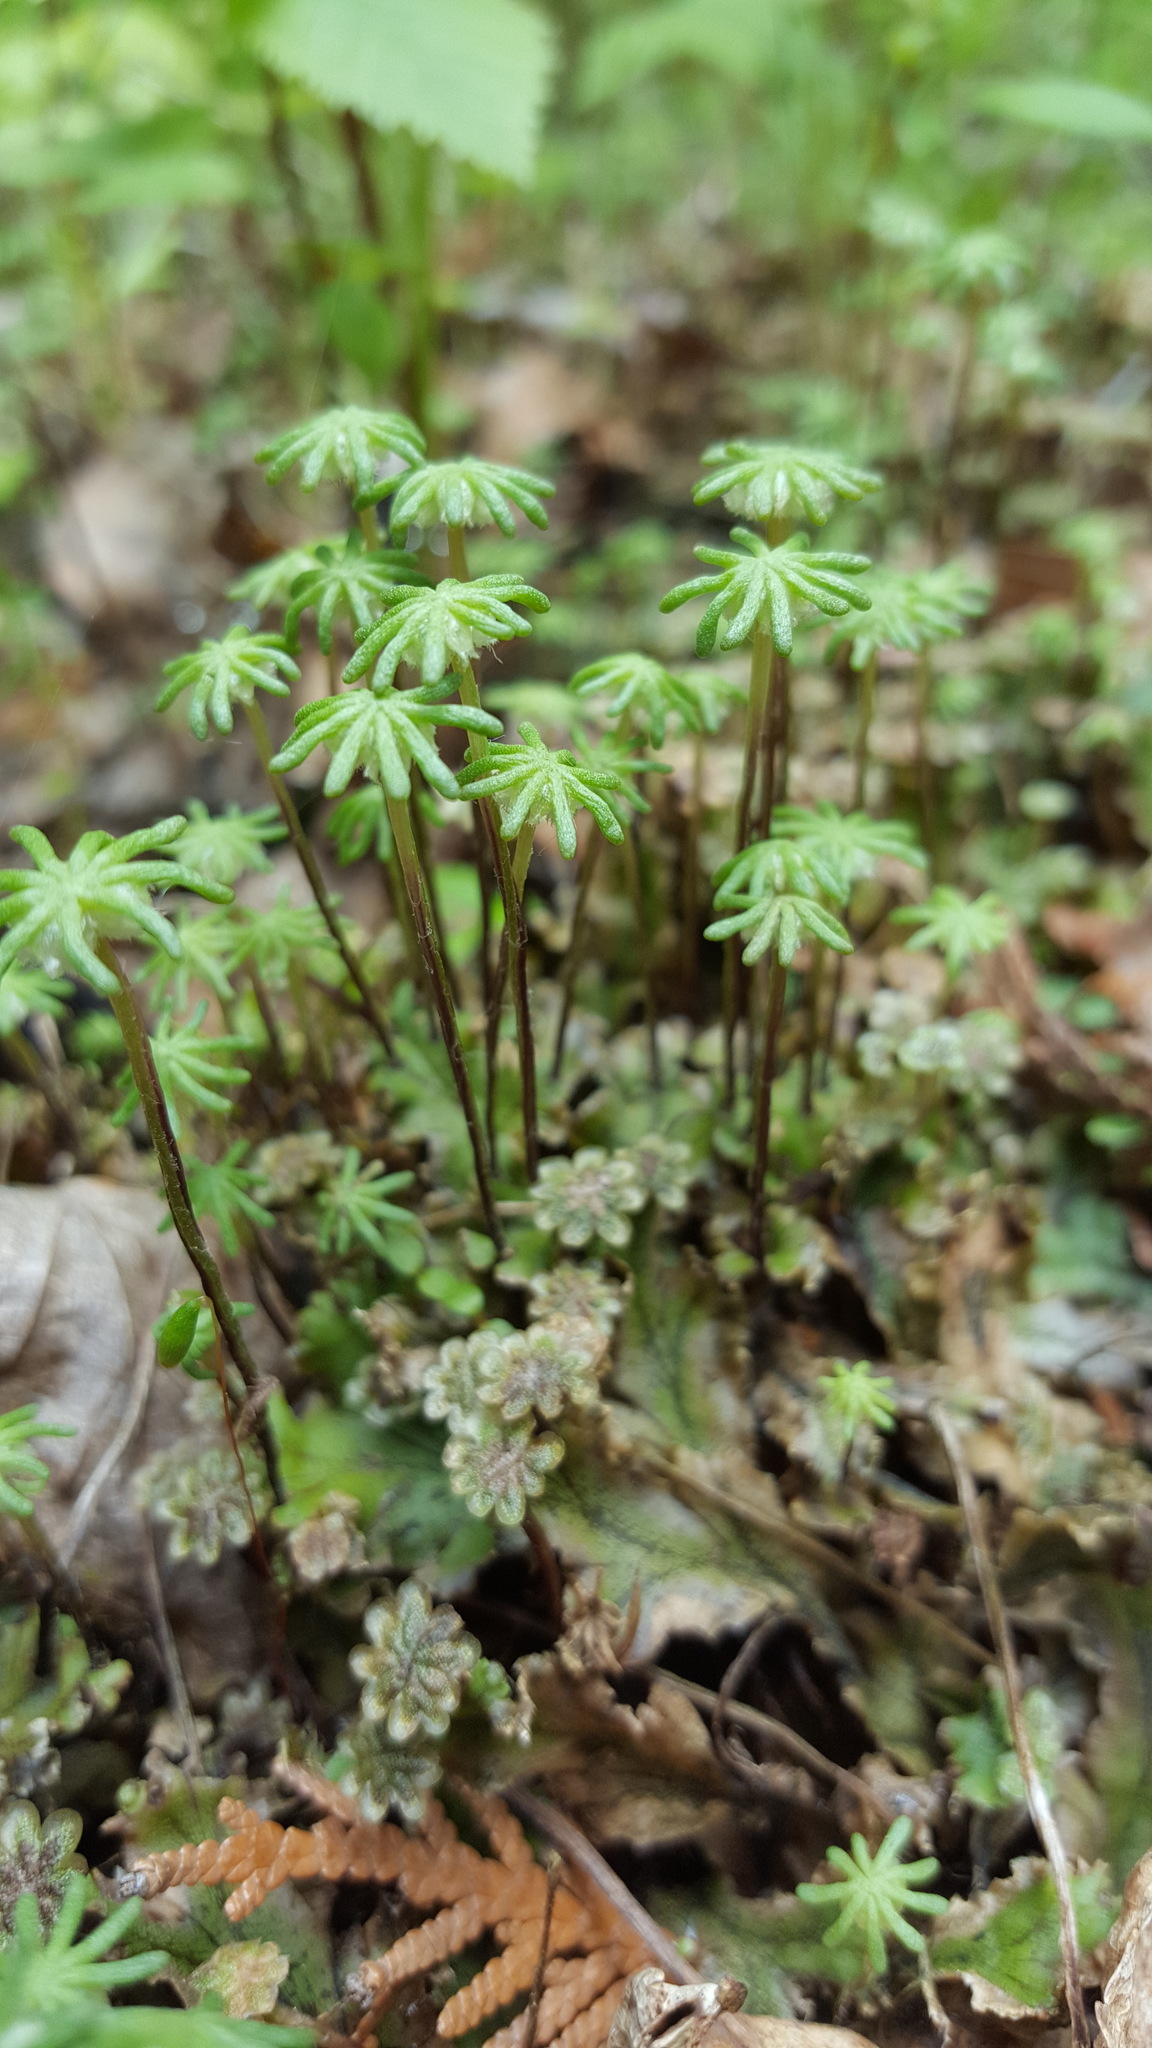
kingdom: Plantae
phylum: Marchantiophyta
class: Marchantiopsida
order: Marchantiales
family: Marchantiaceae
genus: Marchantia
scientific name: Marchantia polymorpha
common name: Common liverwort
